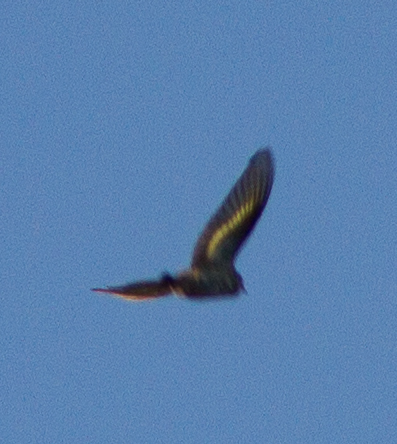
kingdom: Animalia
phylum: Chordata
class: Aves
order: Passeriformes
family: Fringillidae
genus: Spinus
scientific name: Spinus pinus
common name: Pine siskin
